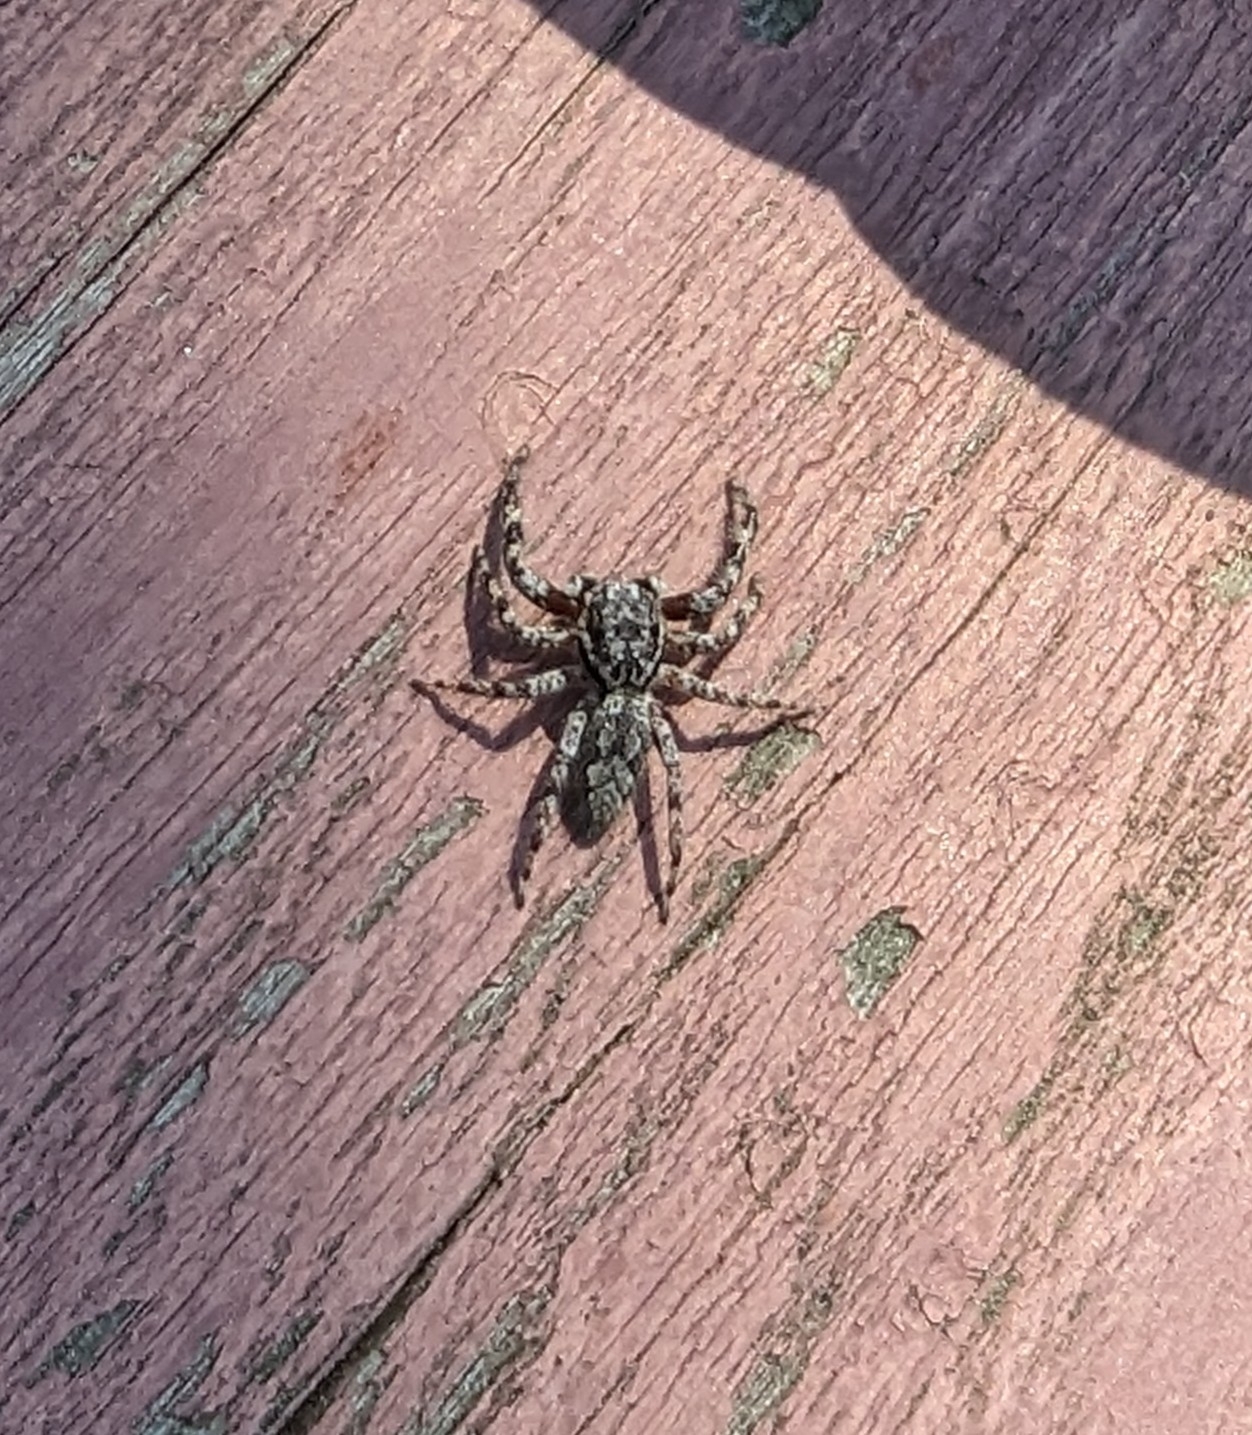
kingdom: Animalia
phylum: Arthropoda
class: Arachnida
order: Araneae
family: Salticidae
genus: Platycryptus
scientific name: Platycryptus undatus
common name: Tan jumping spider
